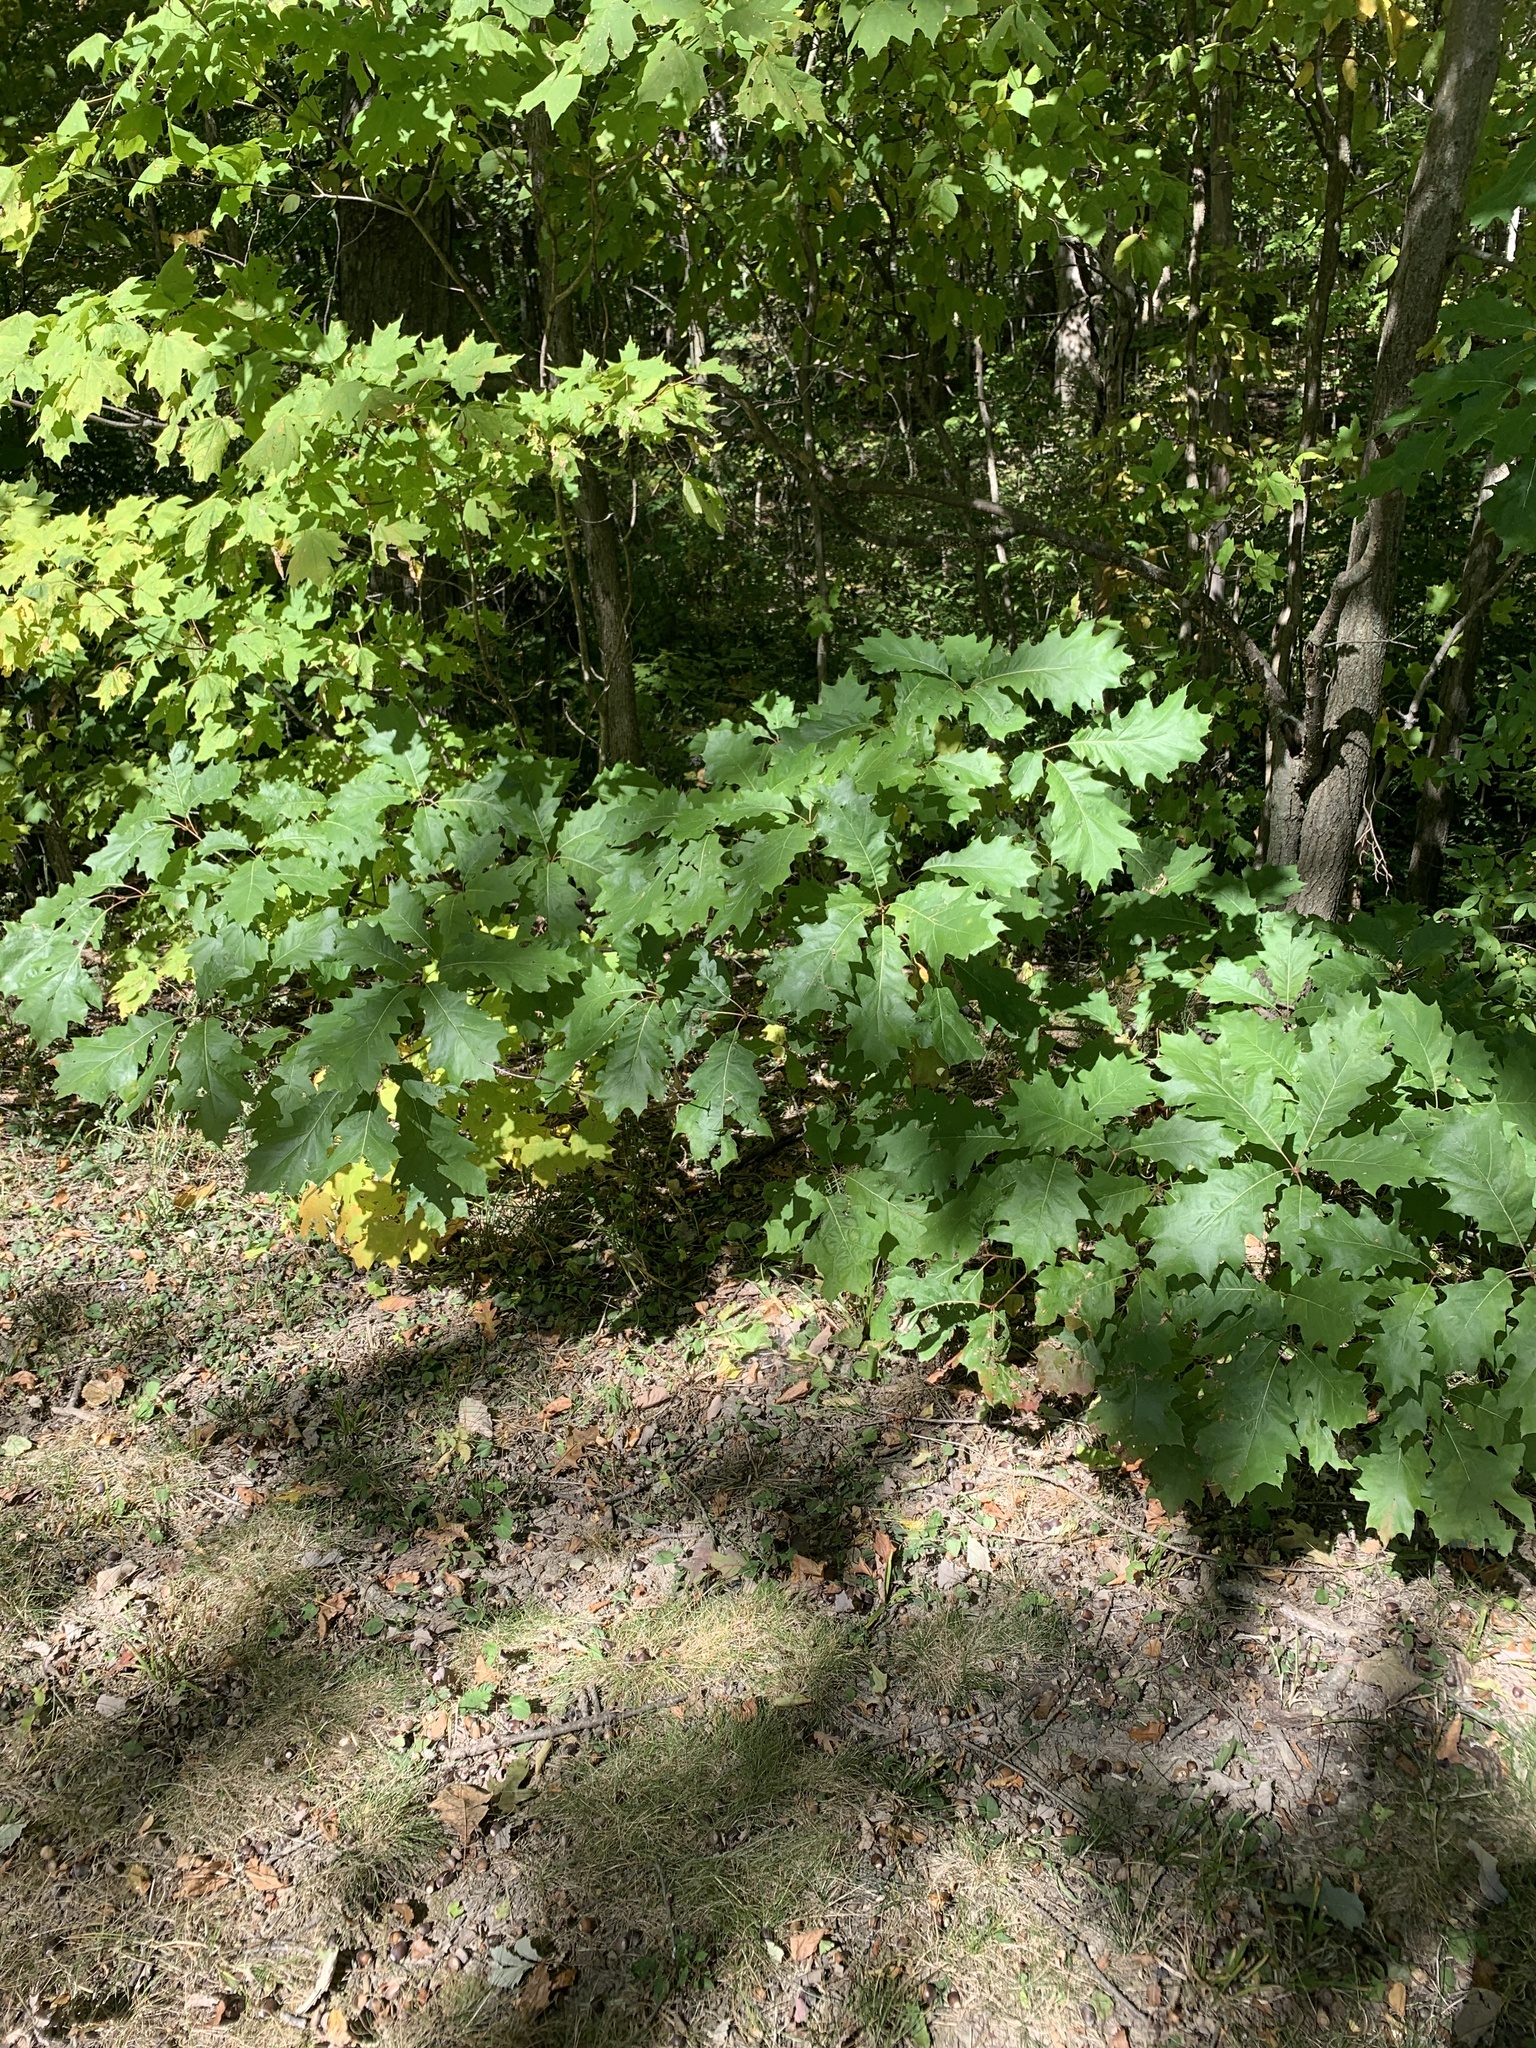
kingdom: Plantae
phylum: Tracheophyta
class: Magnoliopsida
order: Fagales
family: Fagaceae
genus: Quercus
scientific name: Quercus rubra
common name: Red oak
